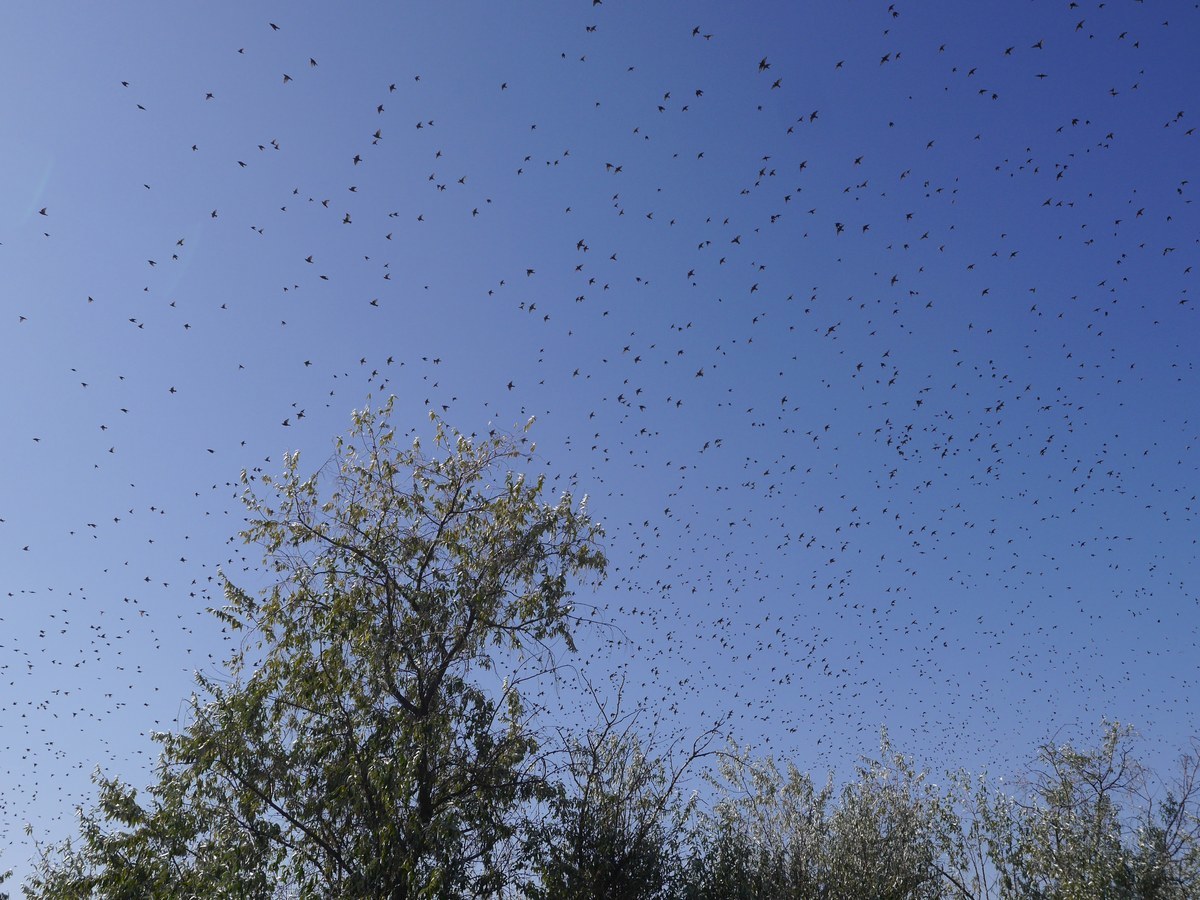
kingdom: Animalia
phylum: Chordata
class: Aves
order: Passeriformes
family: Sturnidae
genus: Sturnus
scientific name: Sturnus vulgaris
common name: Common starling
